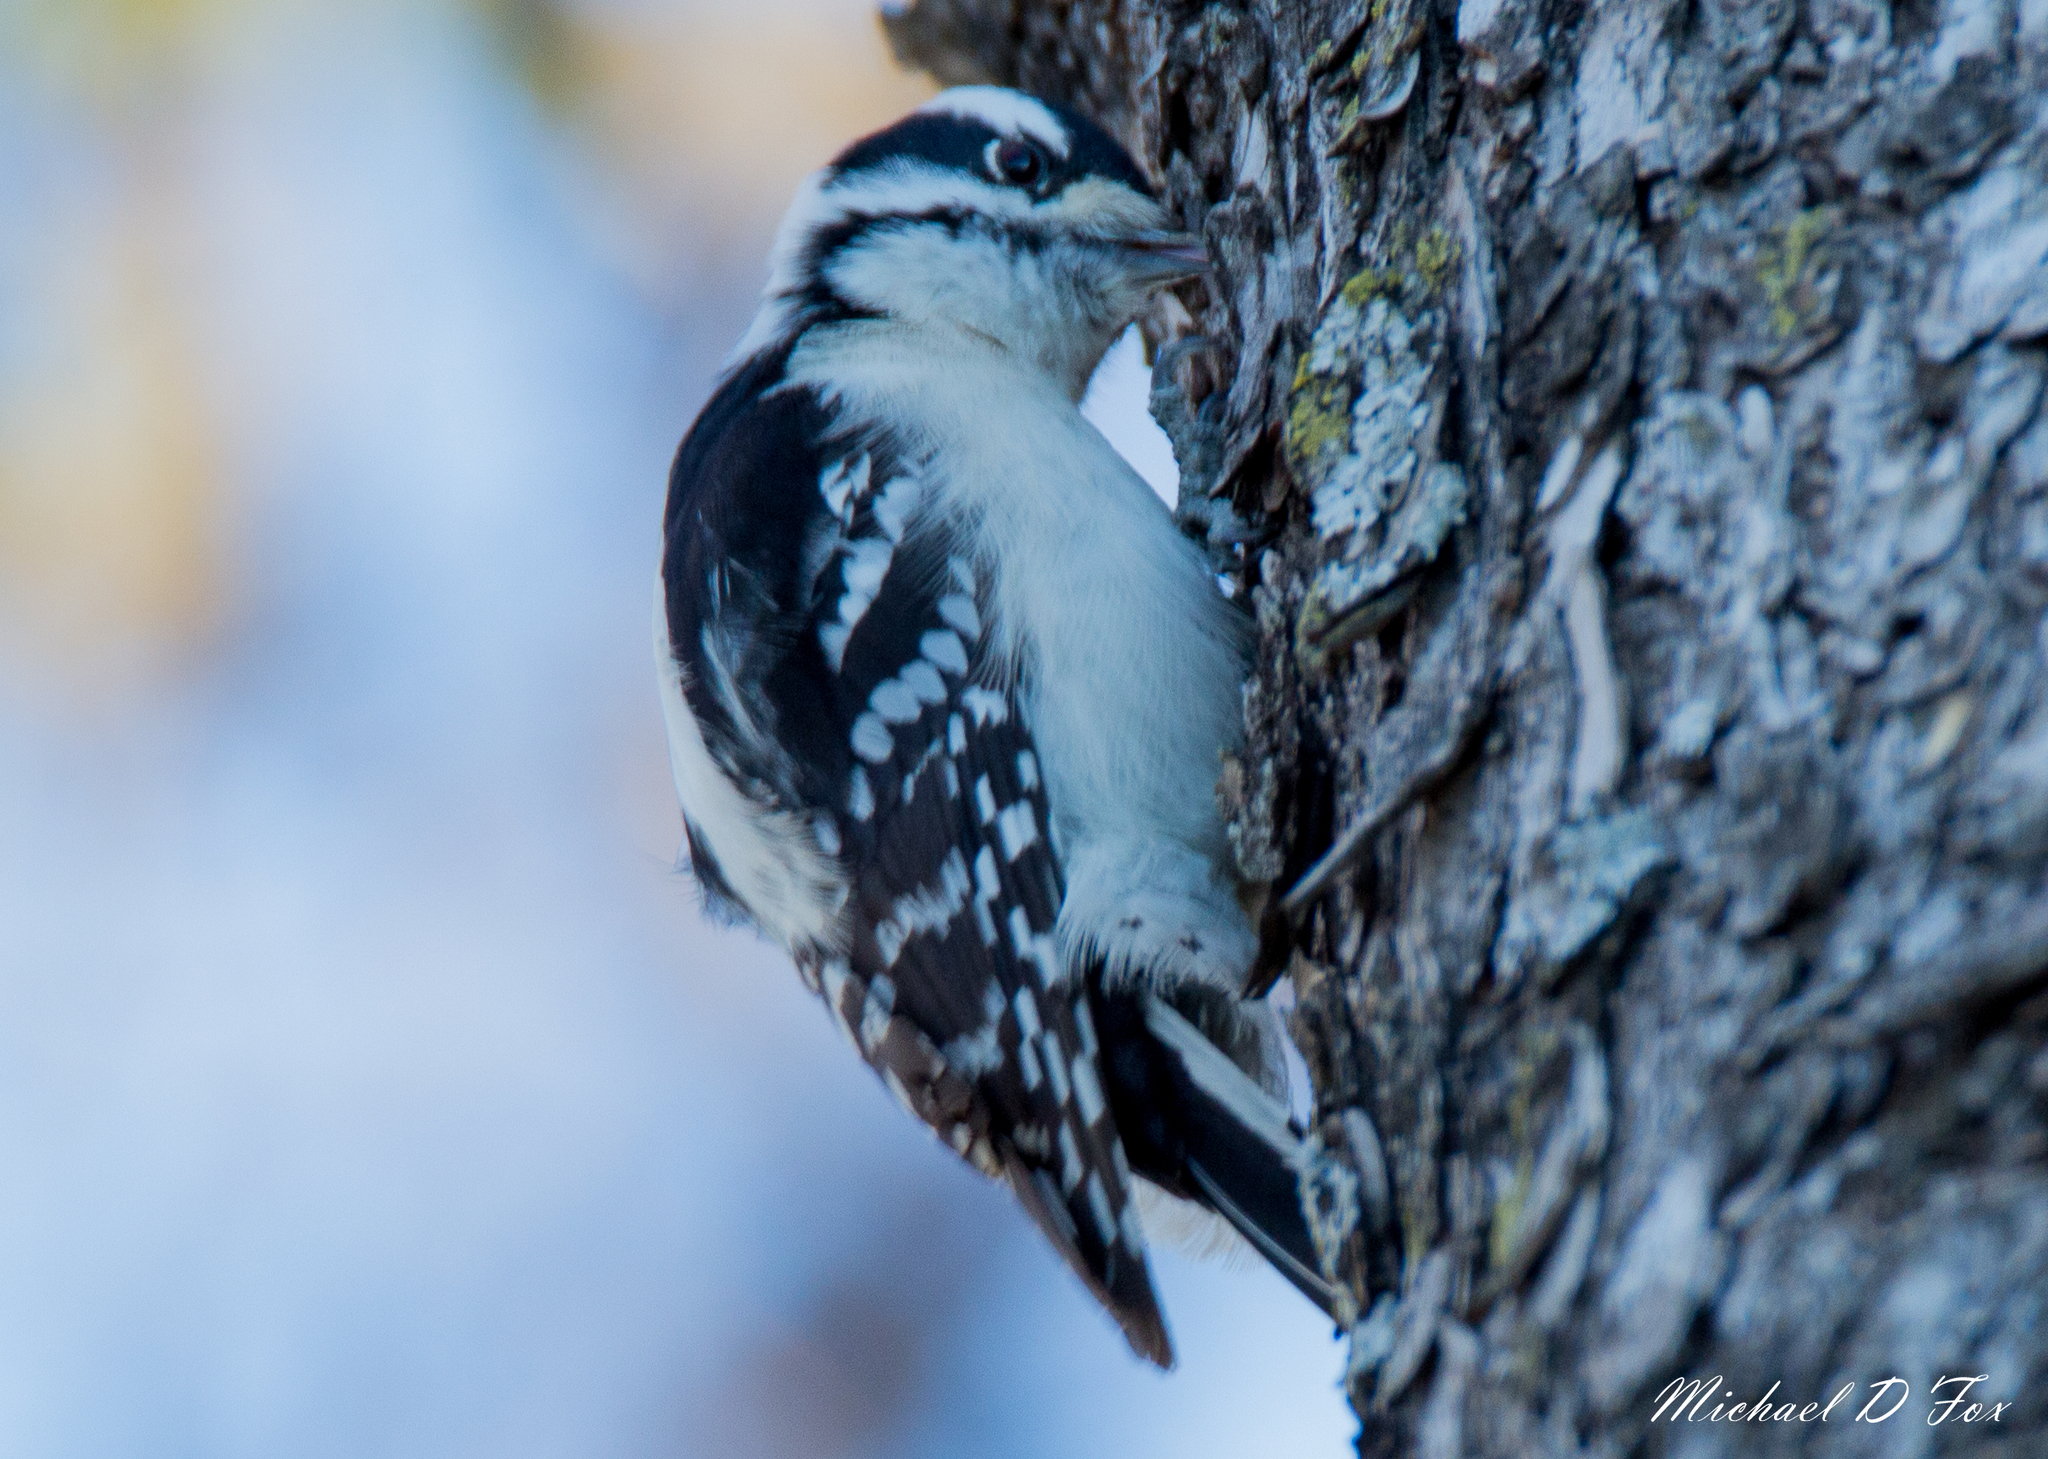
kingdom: Animalia
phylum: Chordata
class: Aves
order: Piciformes
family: Picidae
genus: Dryobates
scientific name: Dryobates pubescens
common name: Downy woodpecker
